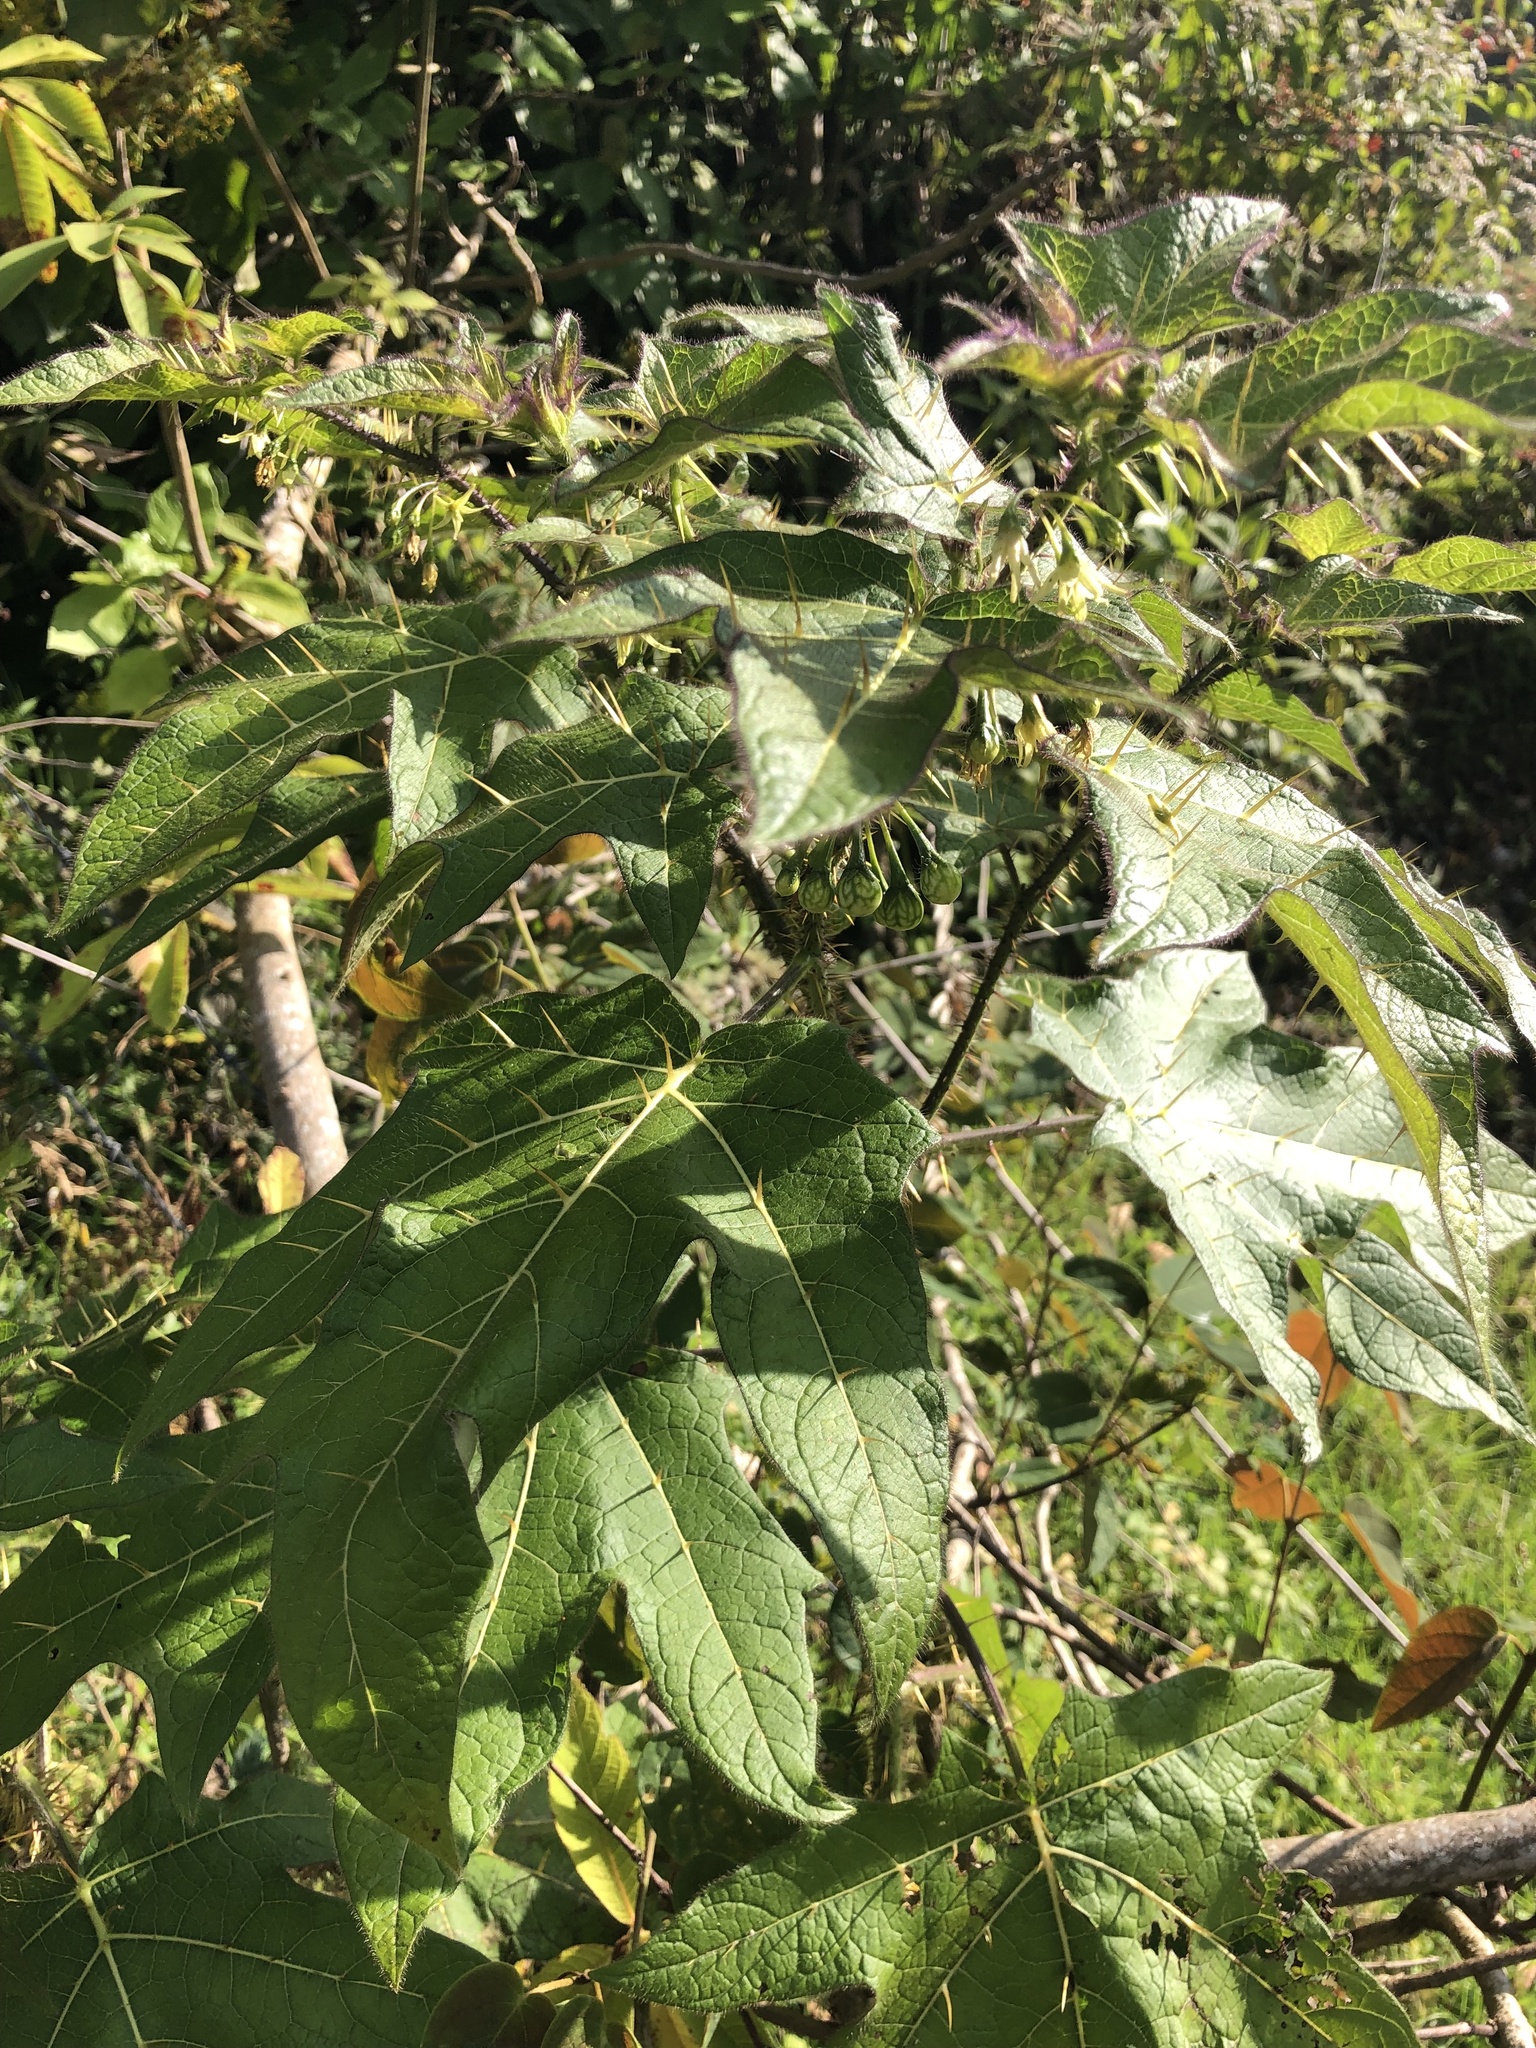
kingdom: Plantae
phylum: Tracheophyta
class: Magnoliopsida
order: Solanales
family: Solanaceae
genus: Solanum
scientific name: Solanum acerifolium
